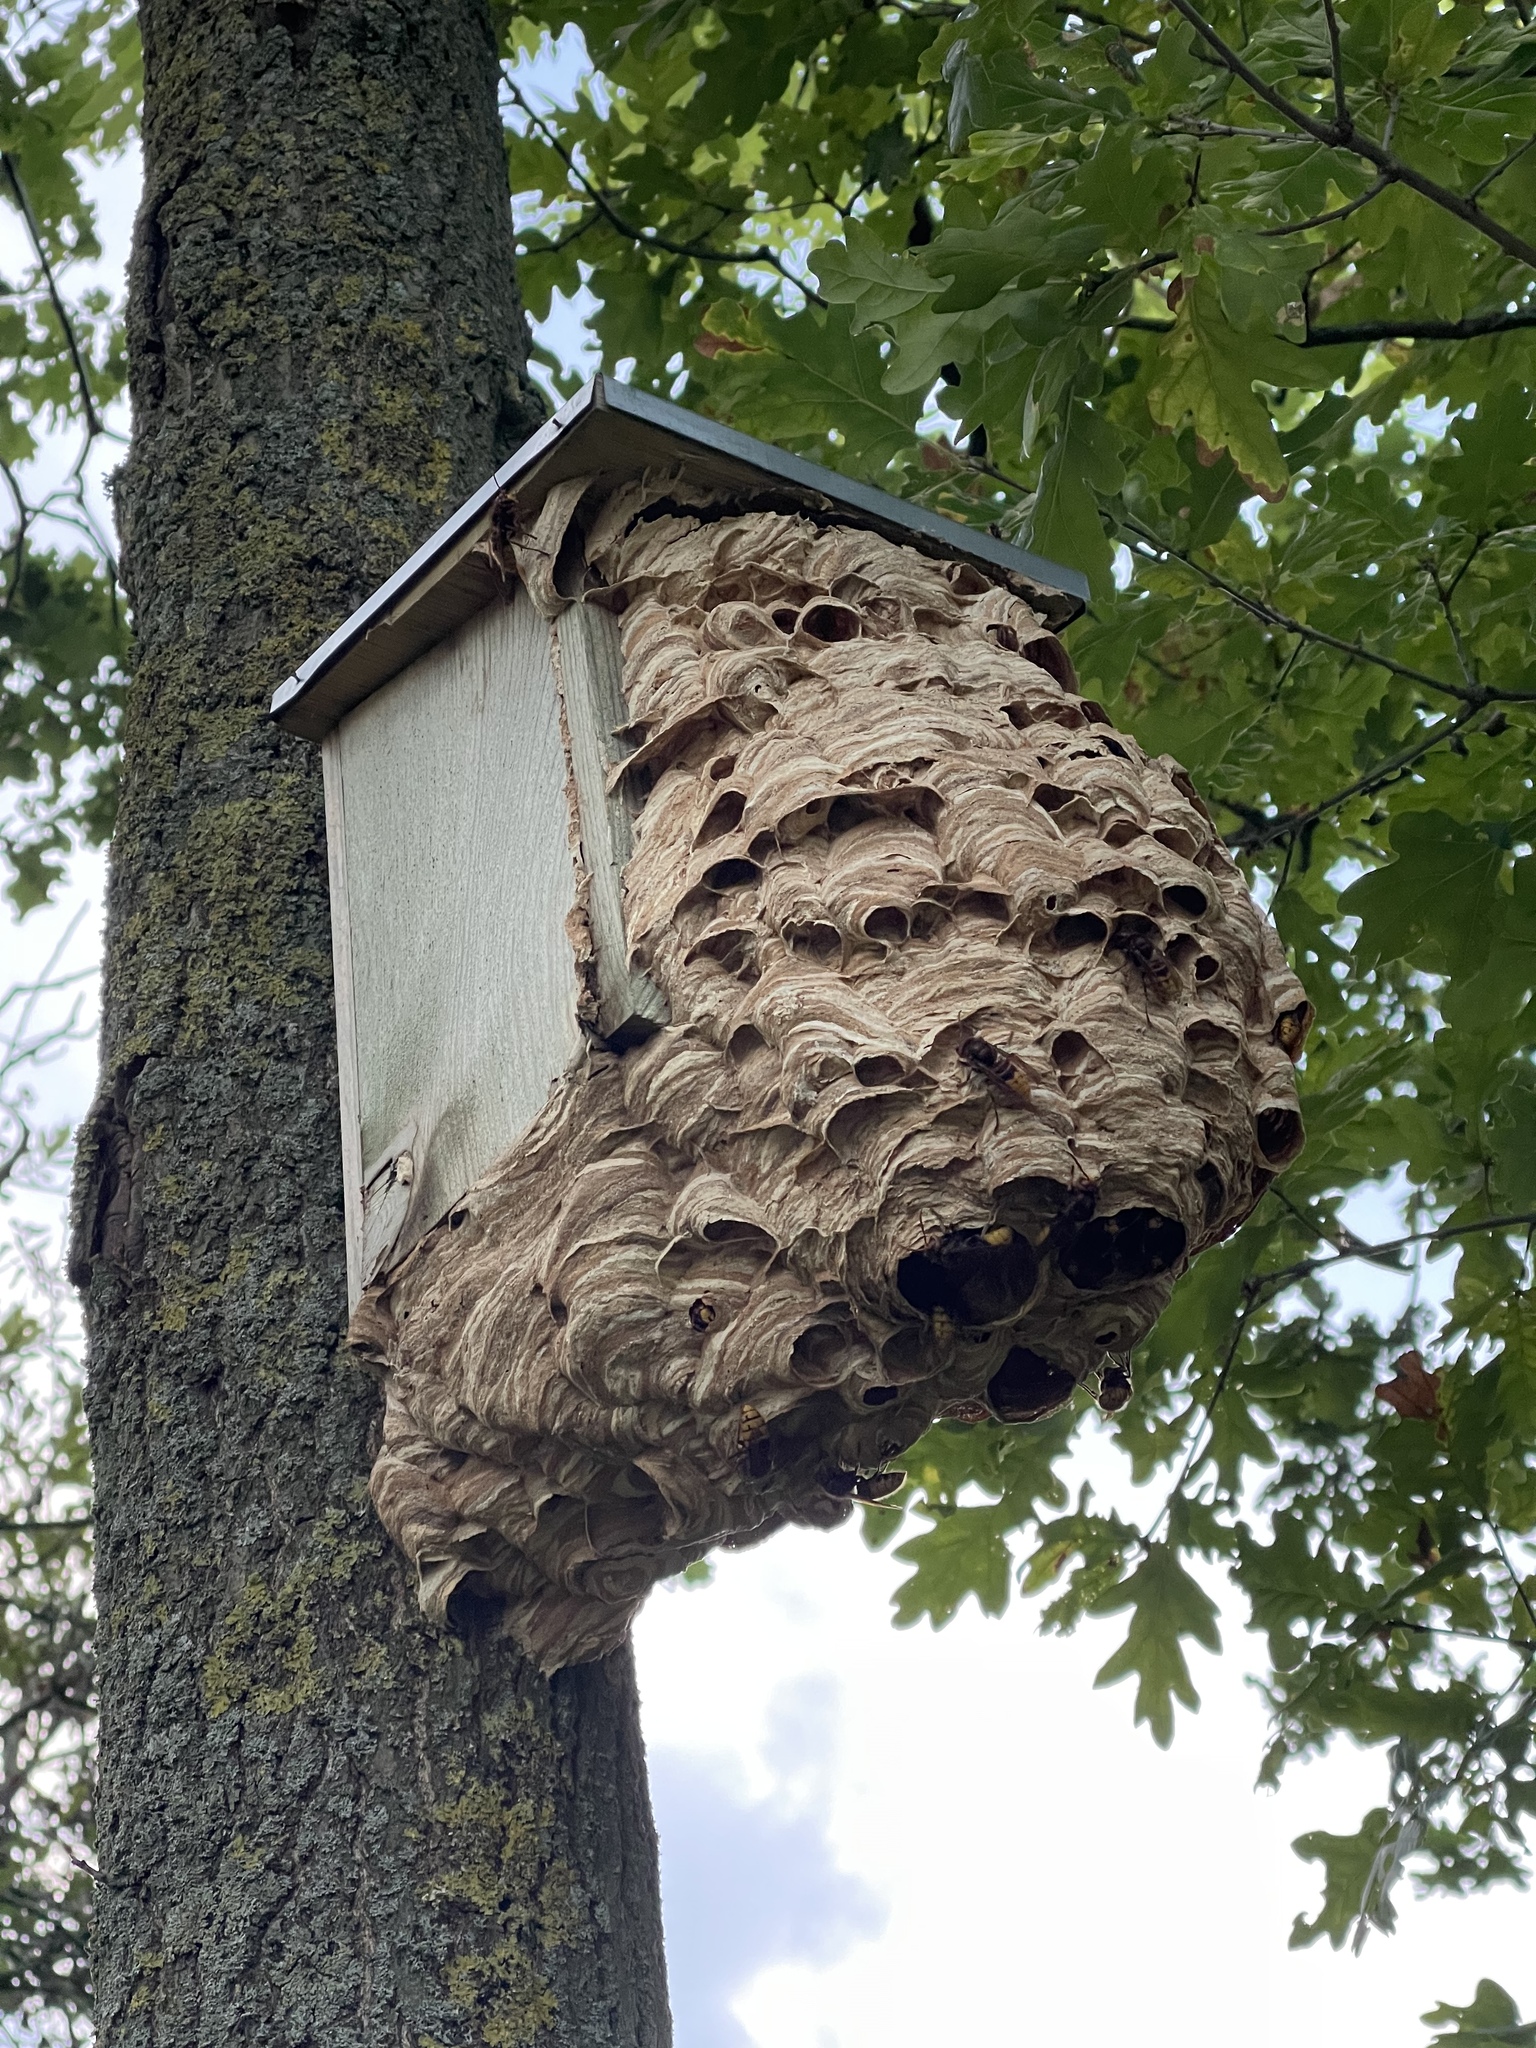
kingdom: Animalia
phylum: Arthropoda
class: Insecta
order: Hymenoptera
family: Vespidae
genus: Vespa
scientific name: Vespa crabro
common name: Hornet
